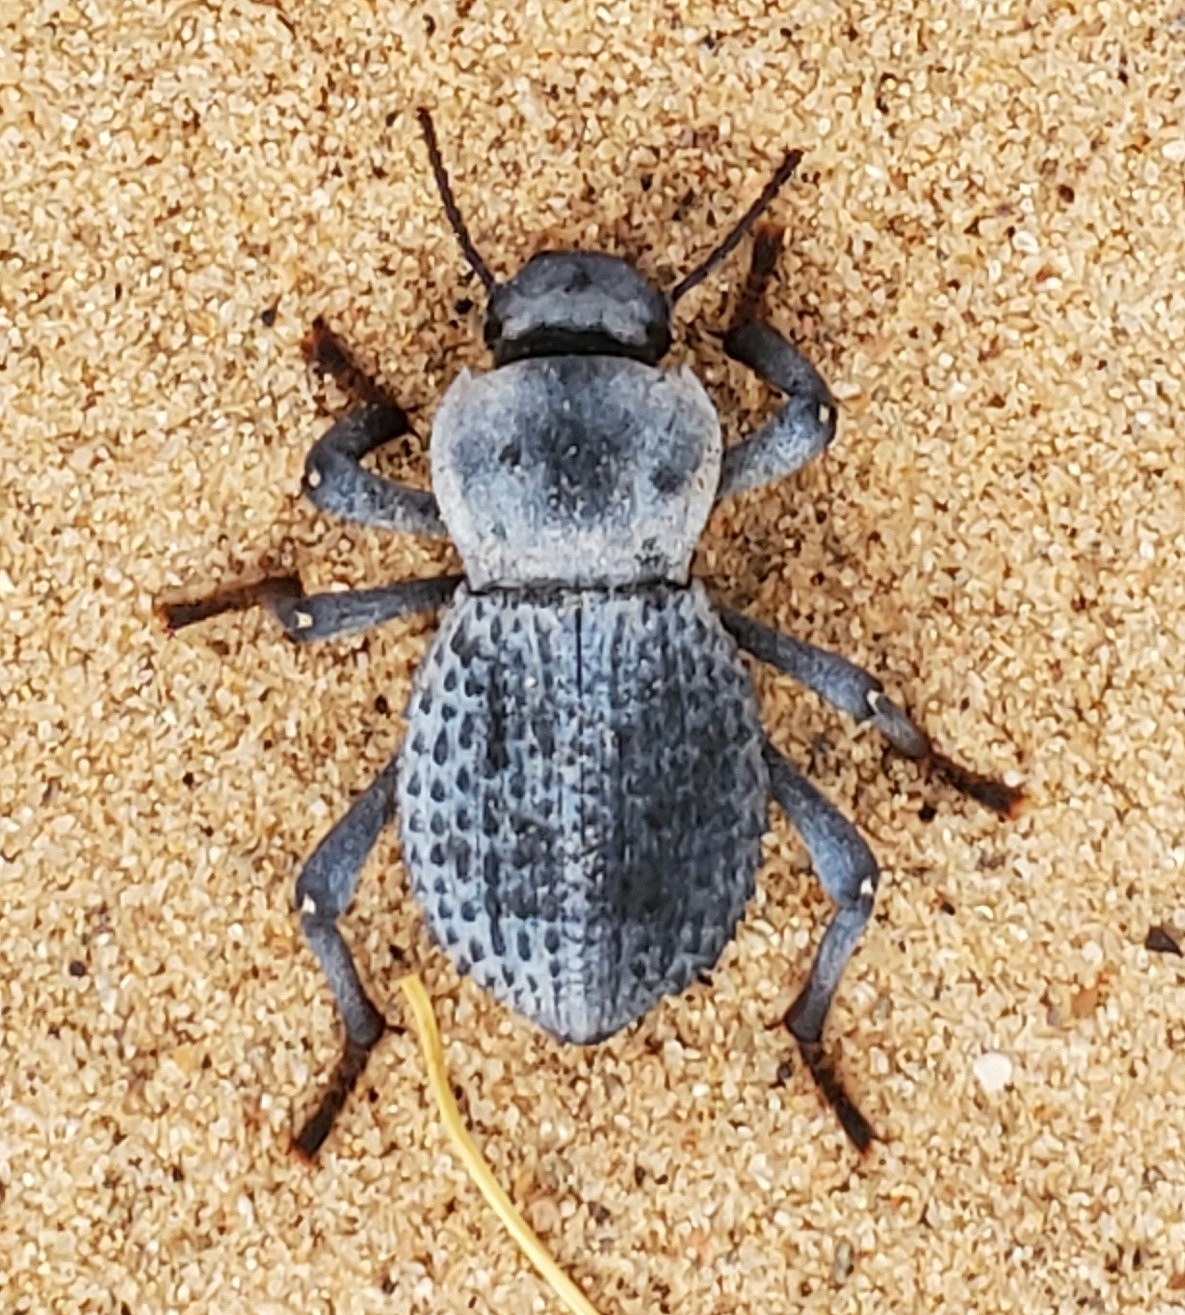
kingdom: Animalia
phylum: Arthropoda
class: Insecta
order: Coleoptera
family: Tenebrionidae
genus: Asbolus
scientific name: Asbolus verrucosus
